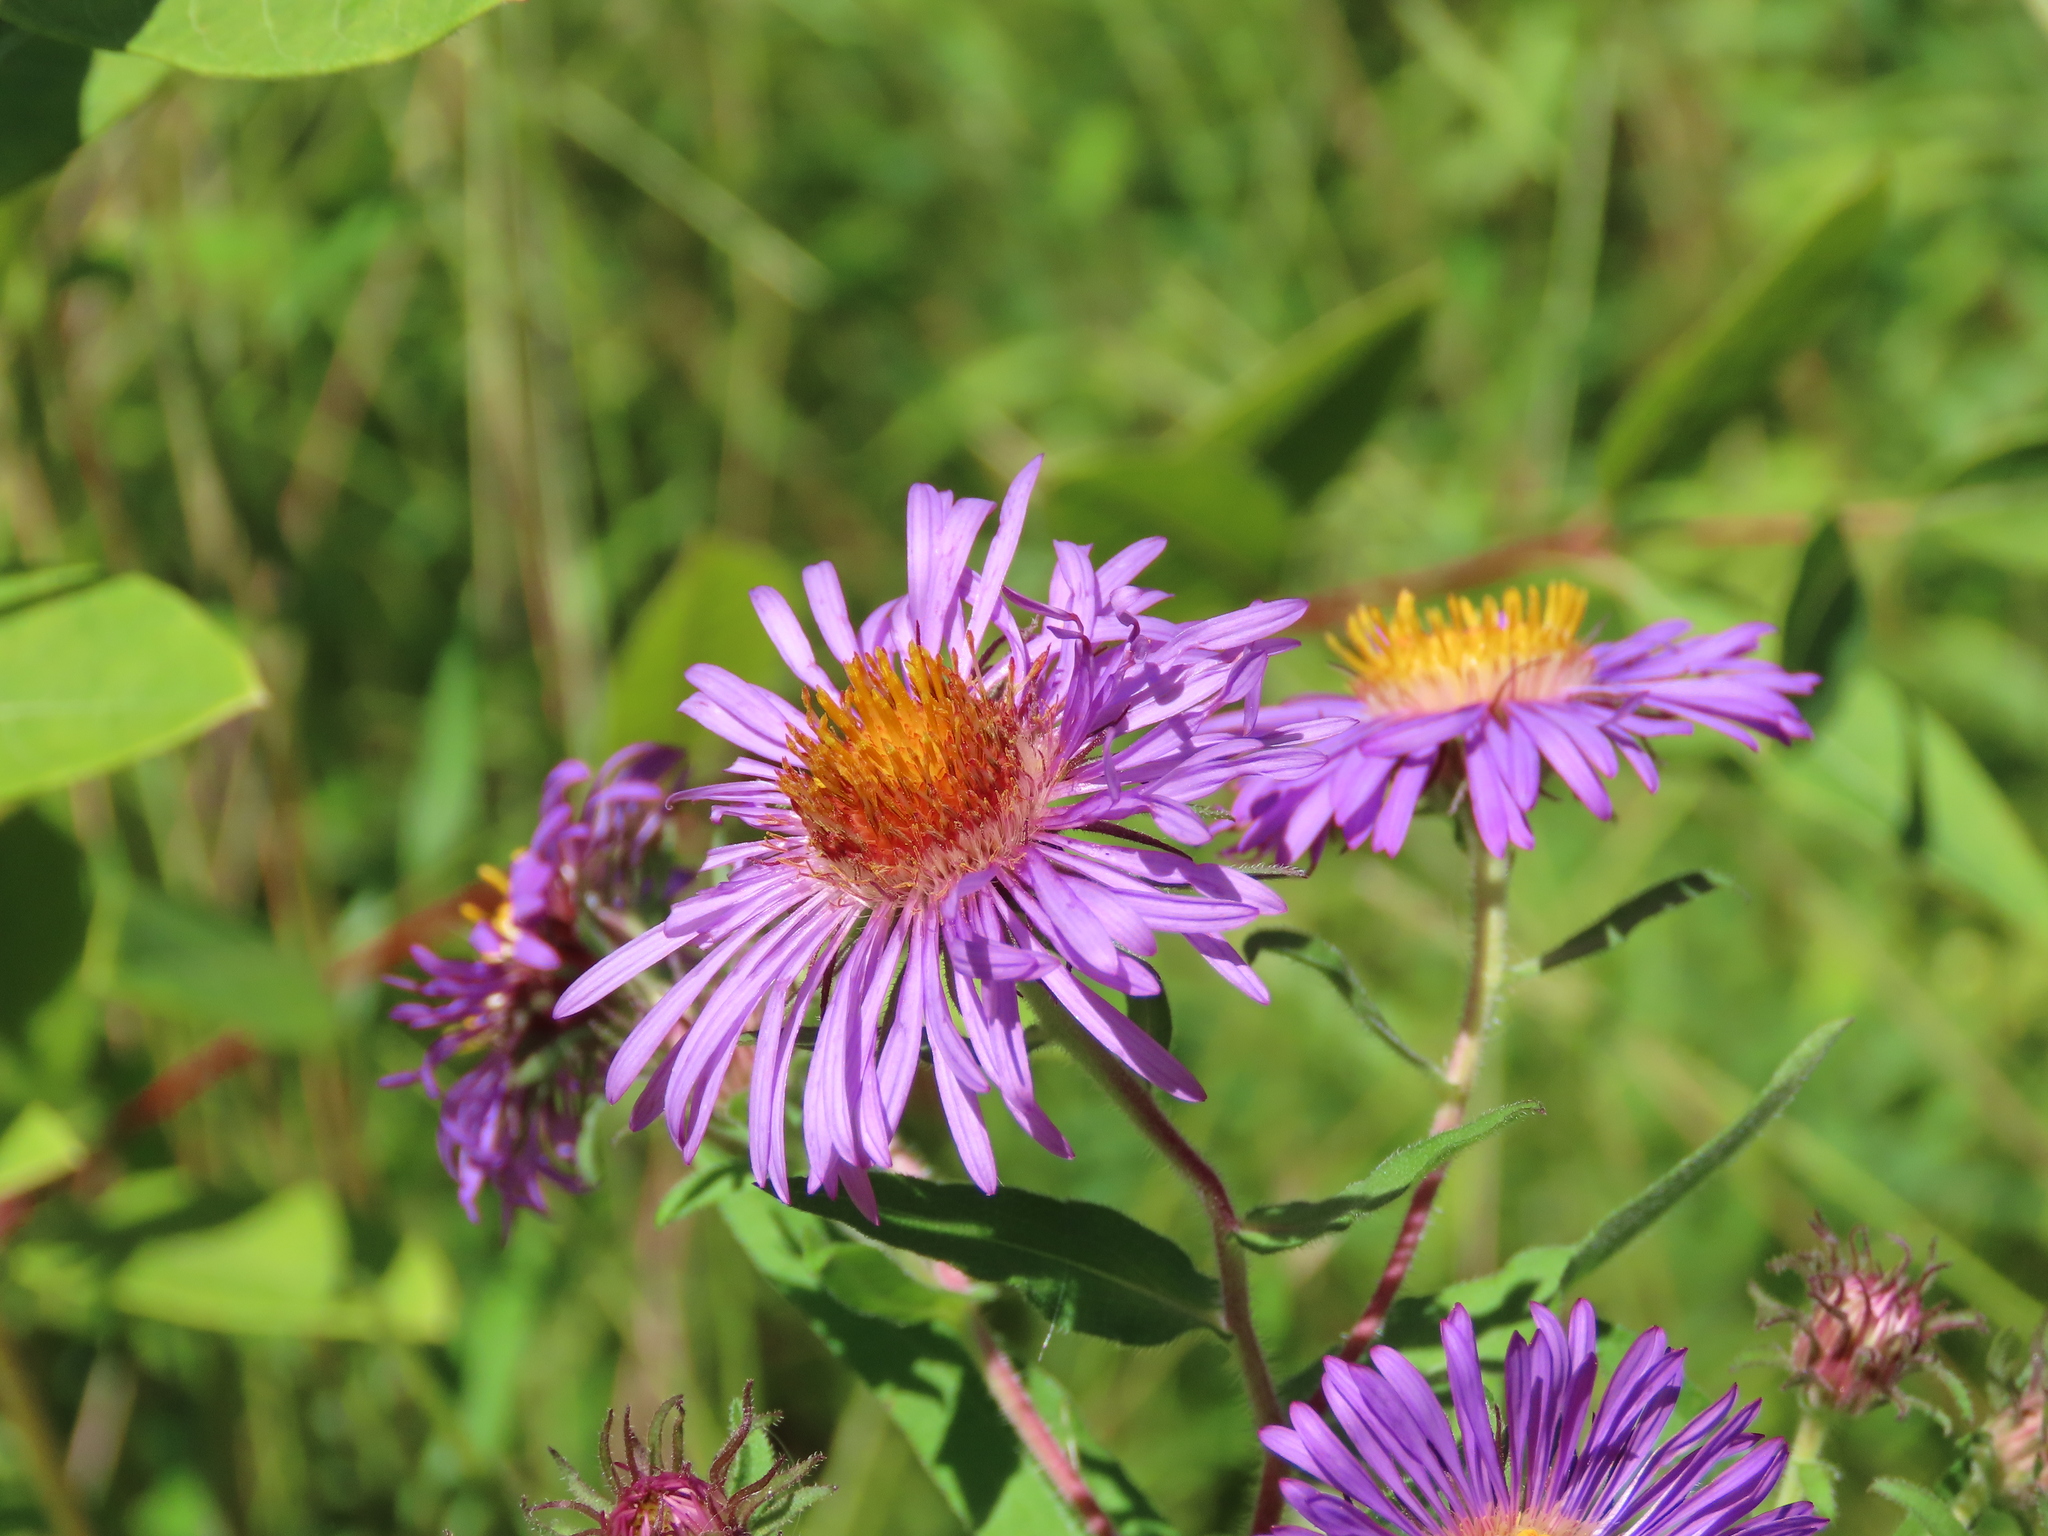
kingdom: Plantae
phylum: Tracheophyta
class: Magnoliopsida
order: Asterales
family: Asteraceae
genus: Symphyotrichum
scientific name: Symphyotrichum novae-angliae
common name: Michaelmas daisy
